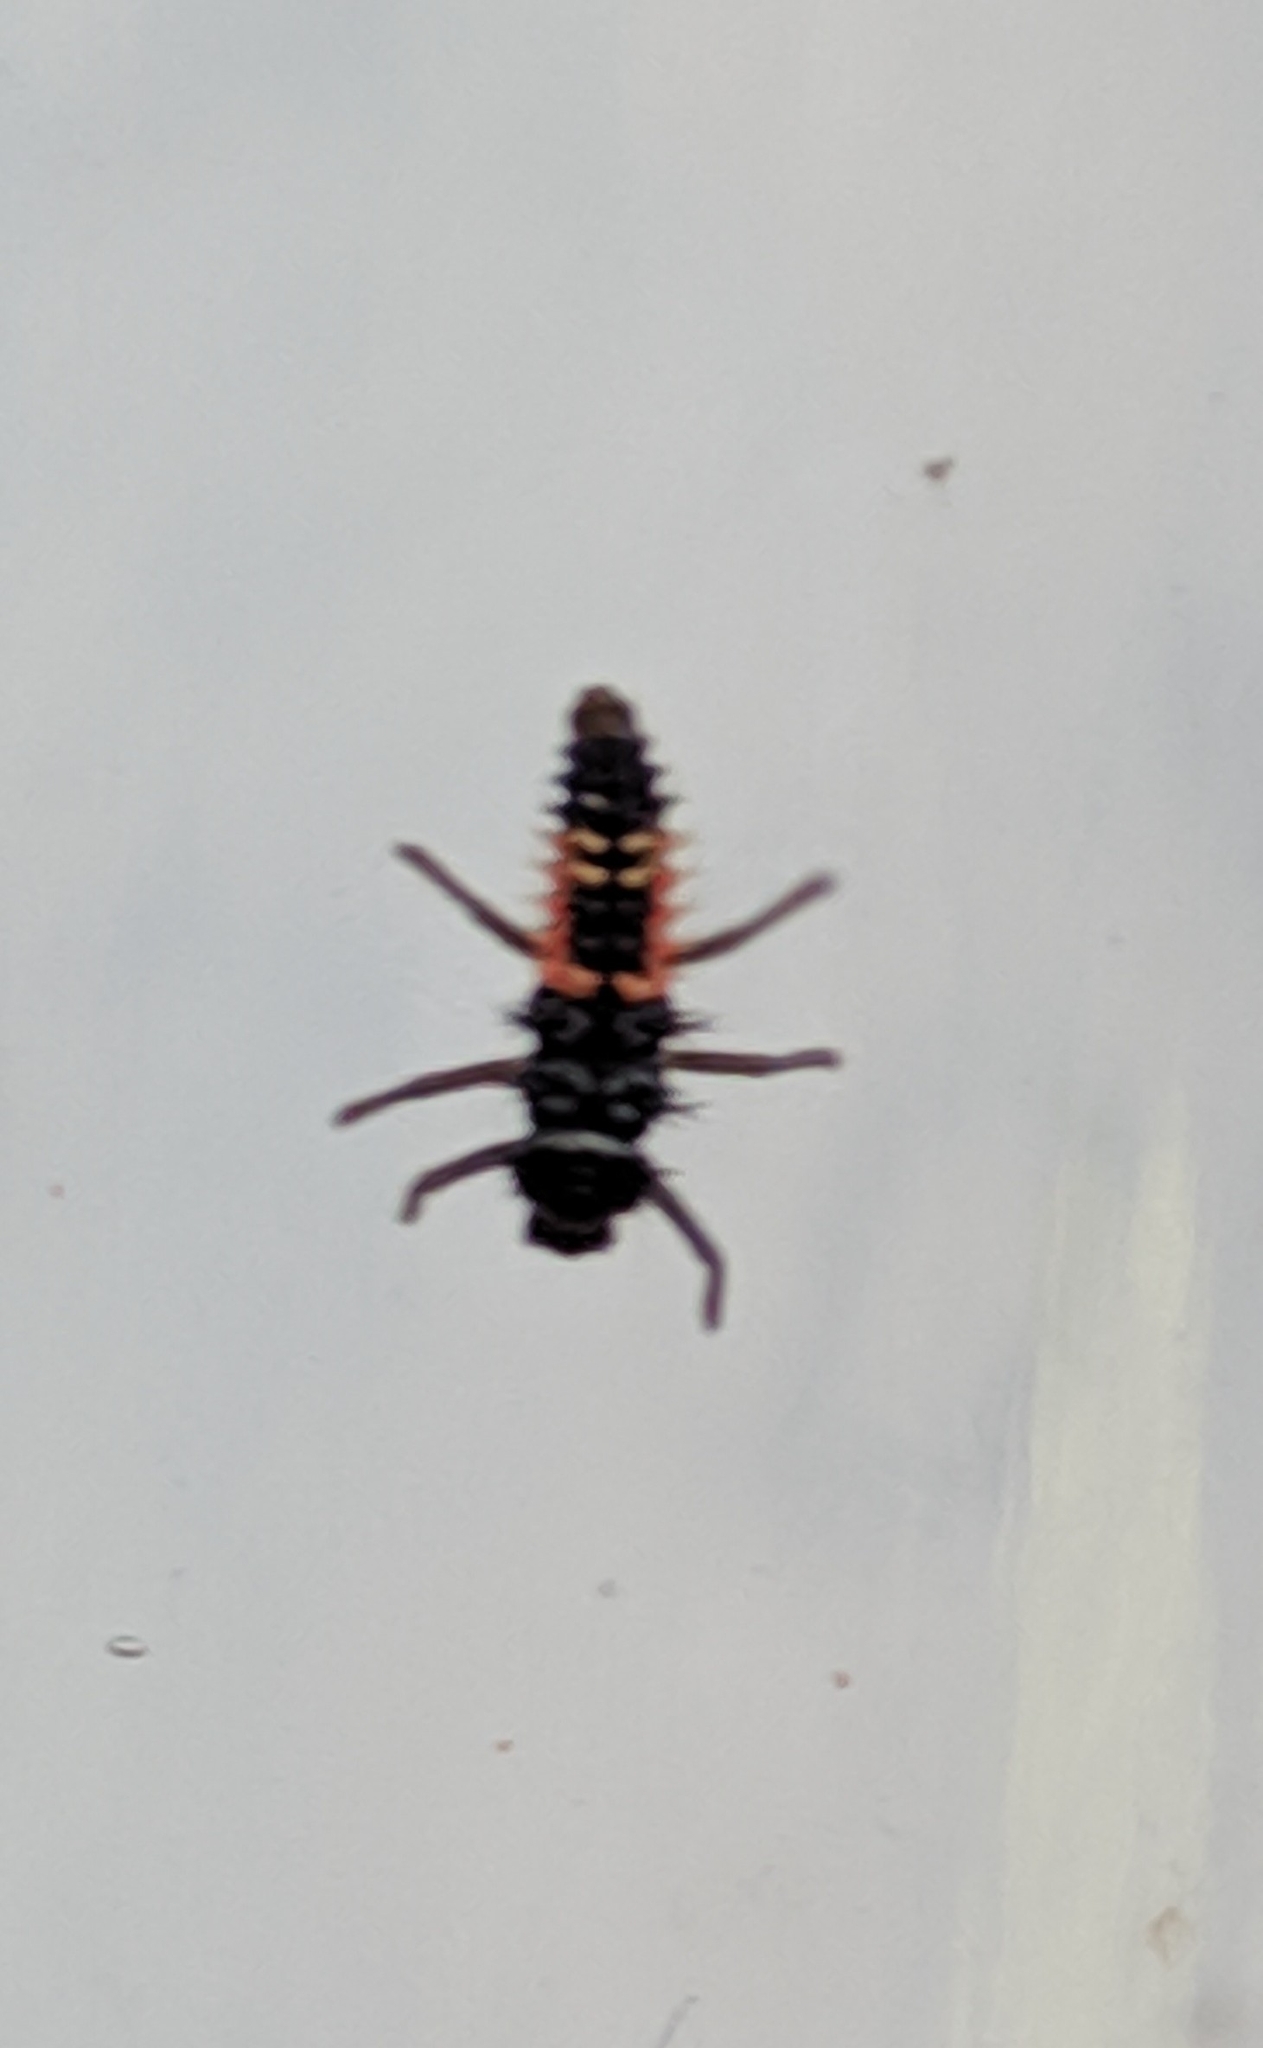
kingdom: Animalia
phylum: Arthropoda
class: Insecta
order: Coleoptera
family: Coccinellidae
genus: Harmonia
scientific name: Harmonia axyridis
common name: Harlequin ladybird
